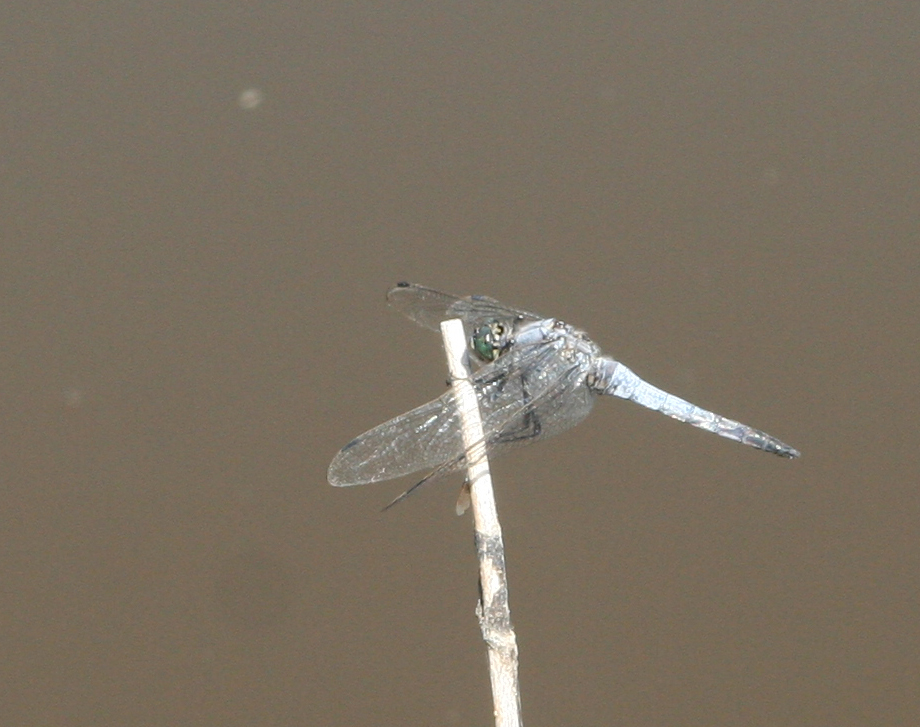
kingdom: Animalia
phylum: Arthropoda
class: Insecta
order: Odonata
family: Libellulidae
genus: Orthetrum
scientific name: Orthetrum cancellatum
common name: Black-tailed skimmer
